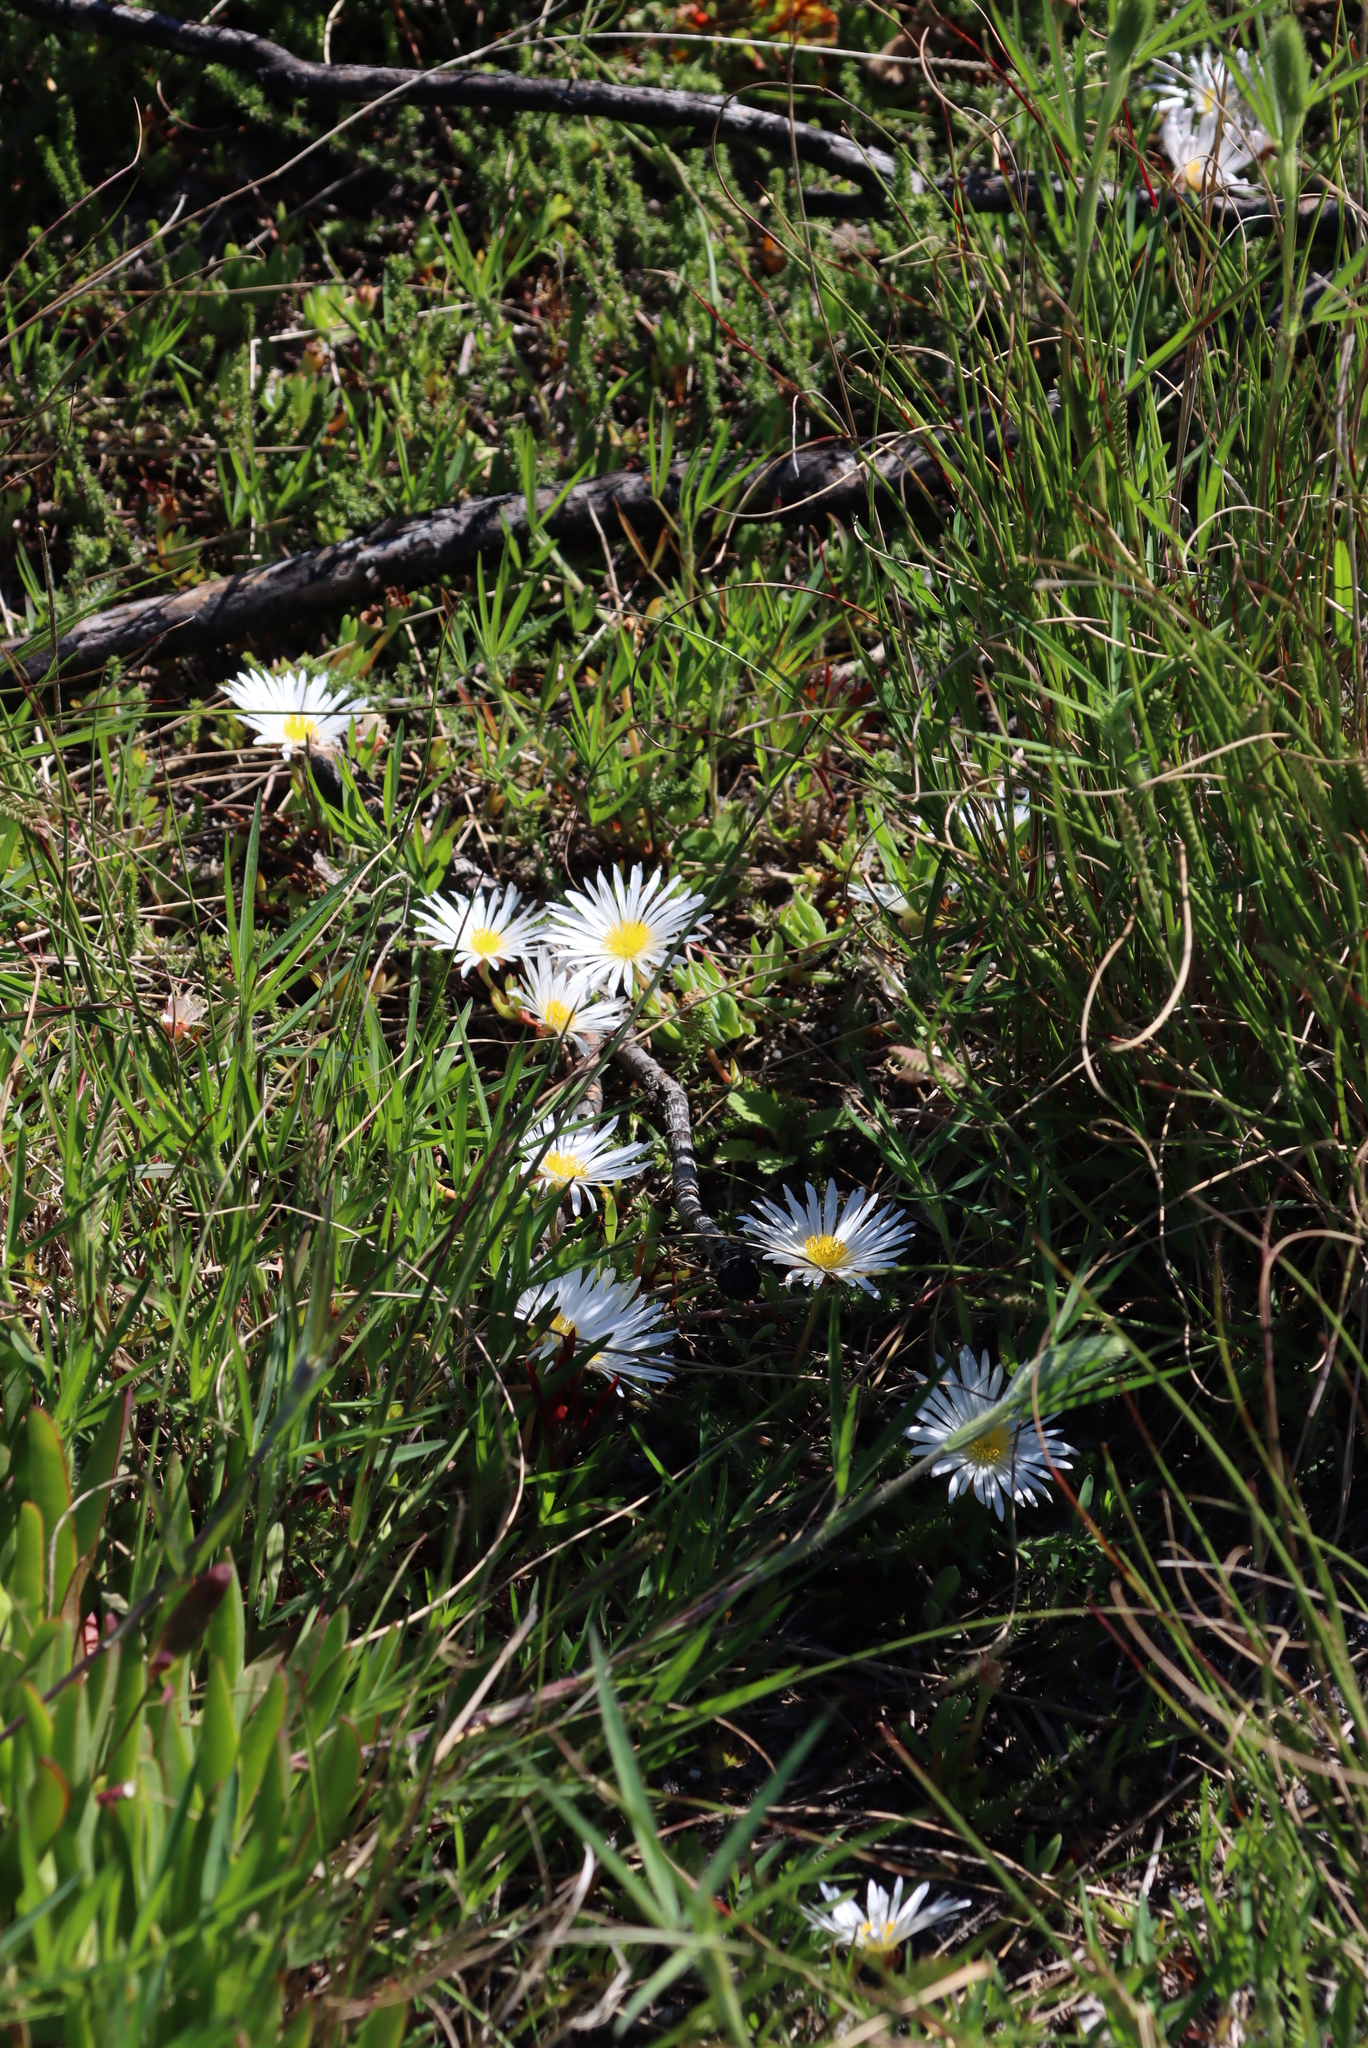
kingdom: Plantae
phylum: Tracheophyta
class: Magnoliopsida
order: Caryophyllales
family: Aizoaceae
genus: Lampranthus
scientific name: Lampranthus reptans
